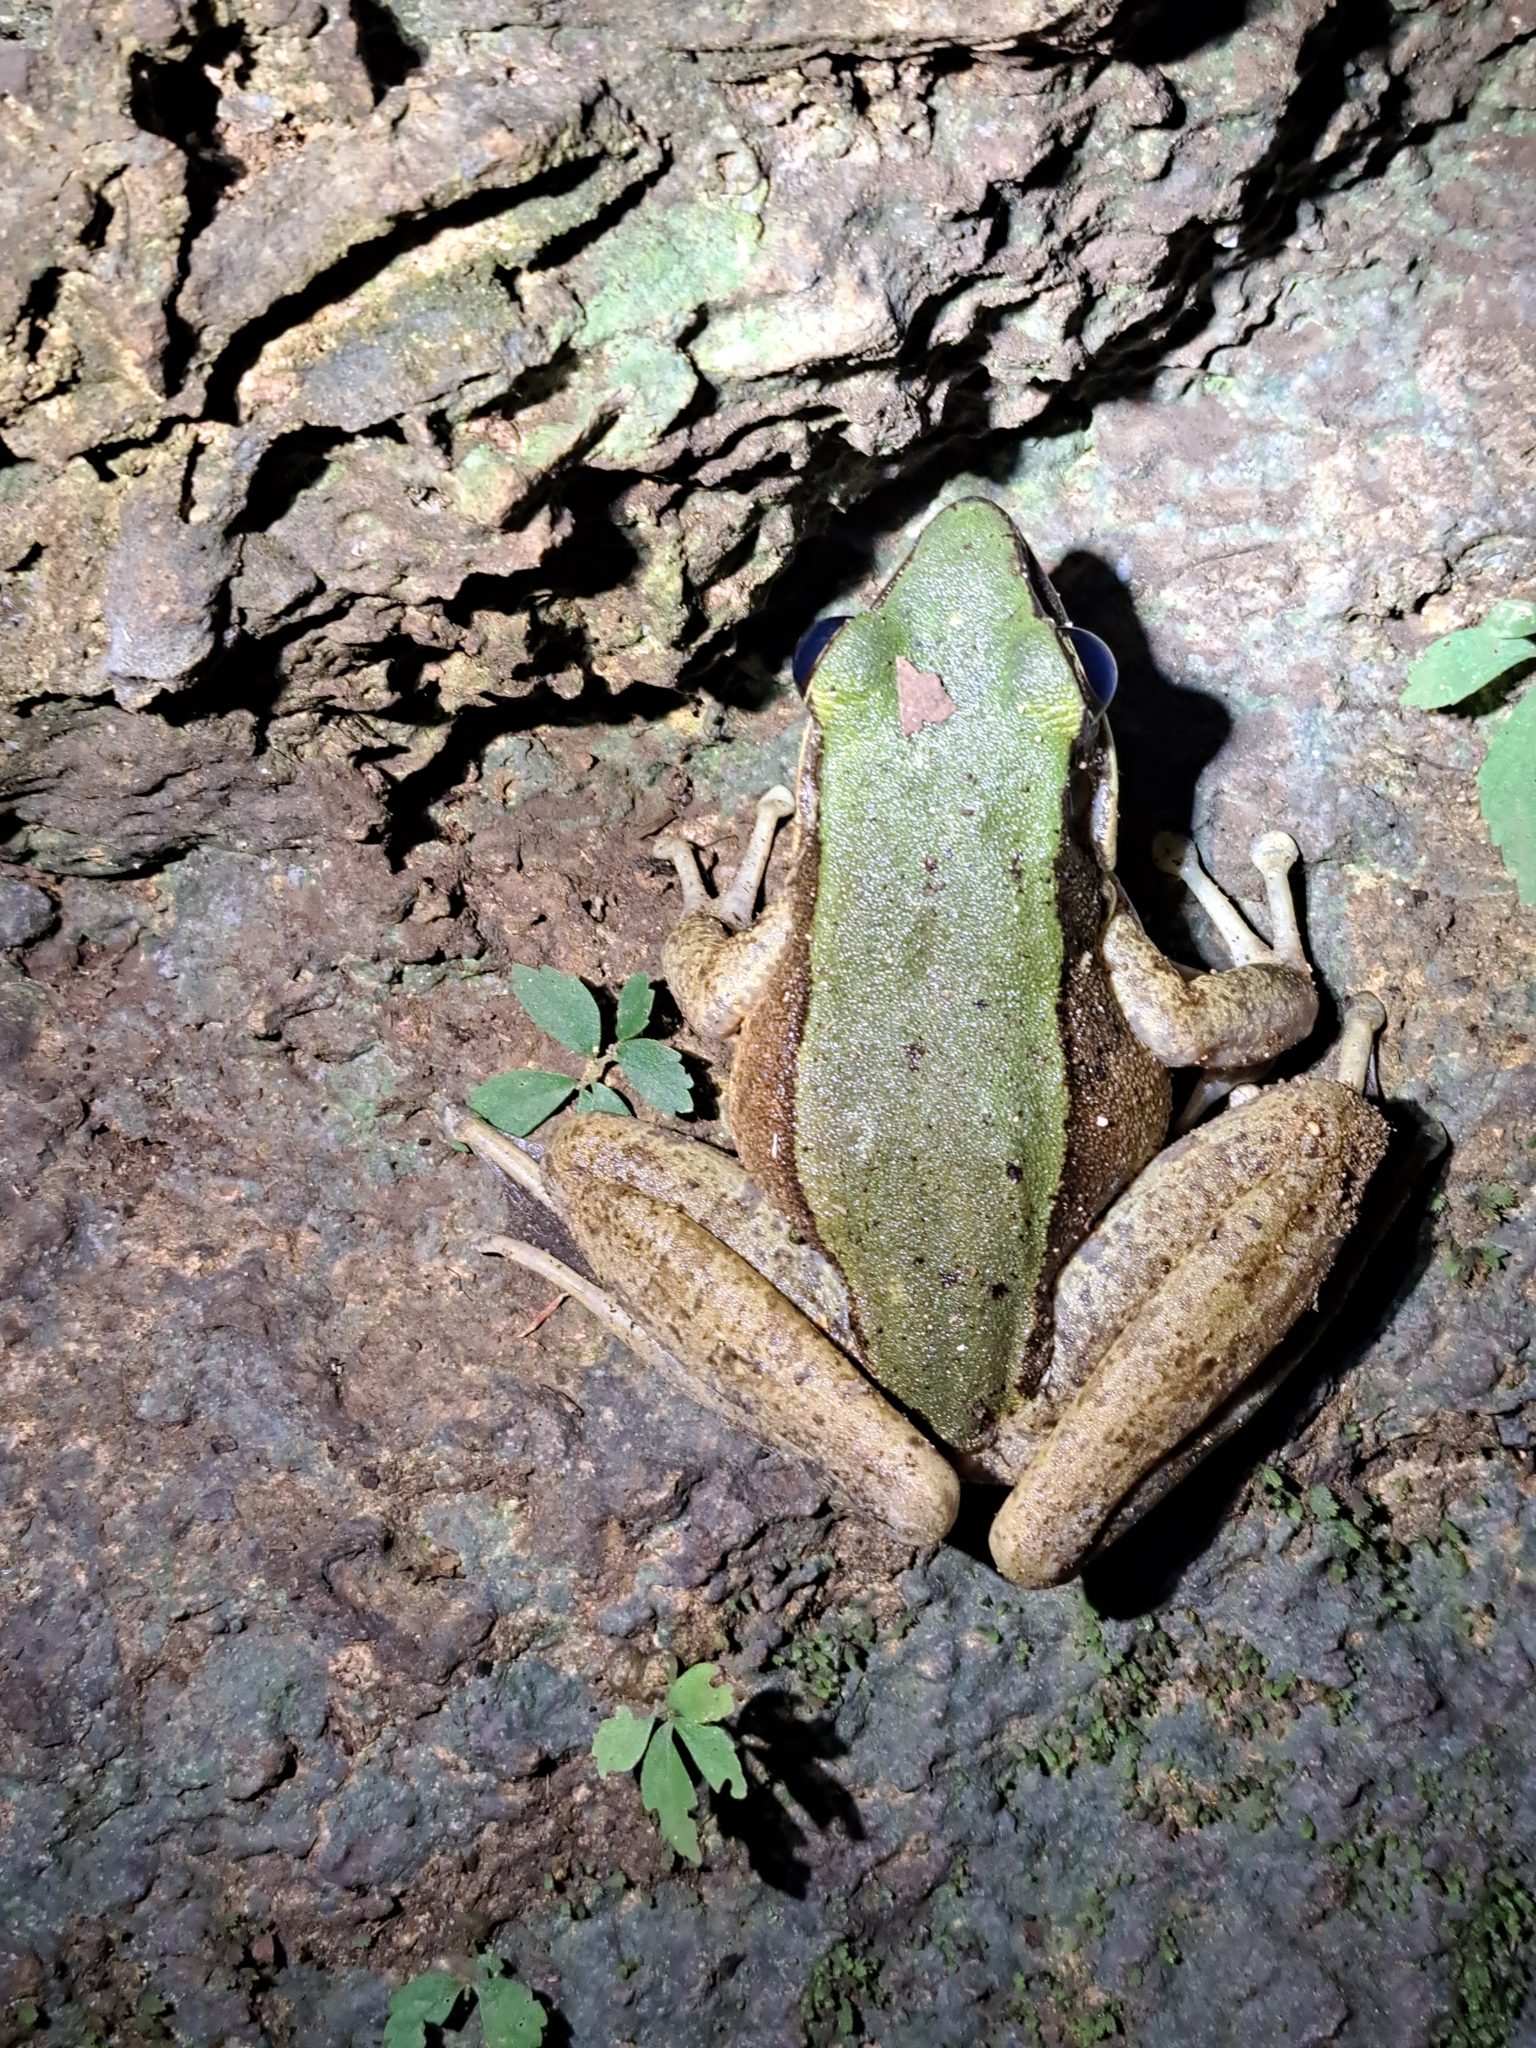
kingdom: Animalia
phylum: Chordata
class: Amphibia
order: Anura
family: Ranidae
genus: Odorrana
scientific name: Odorrana livida
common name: Bright frog
